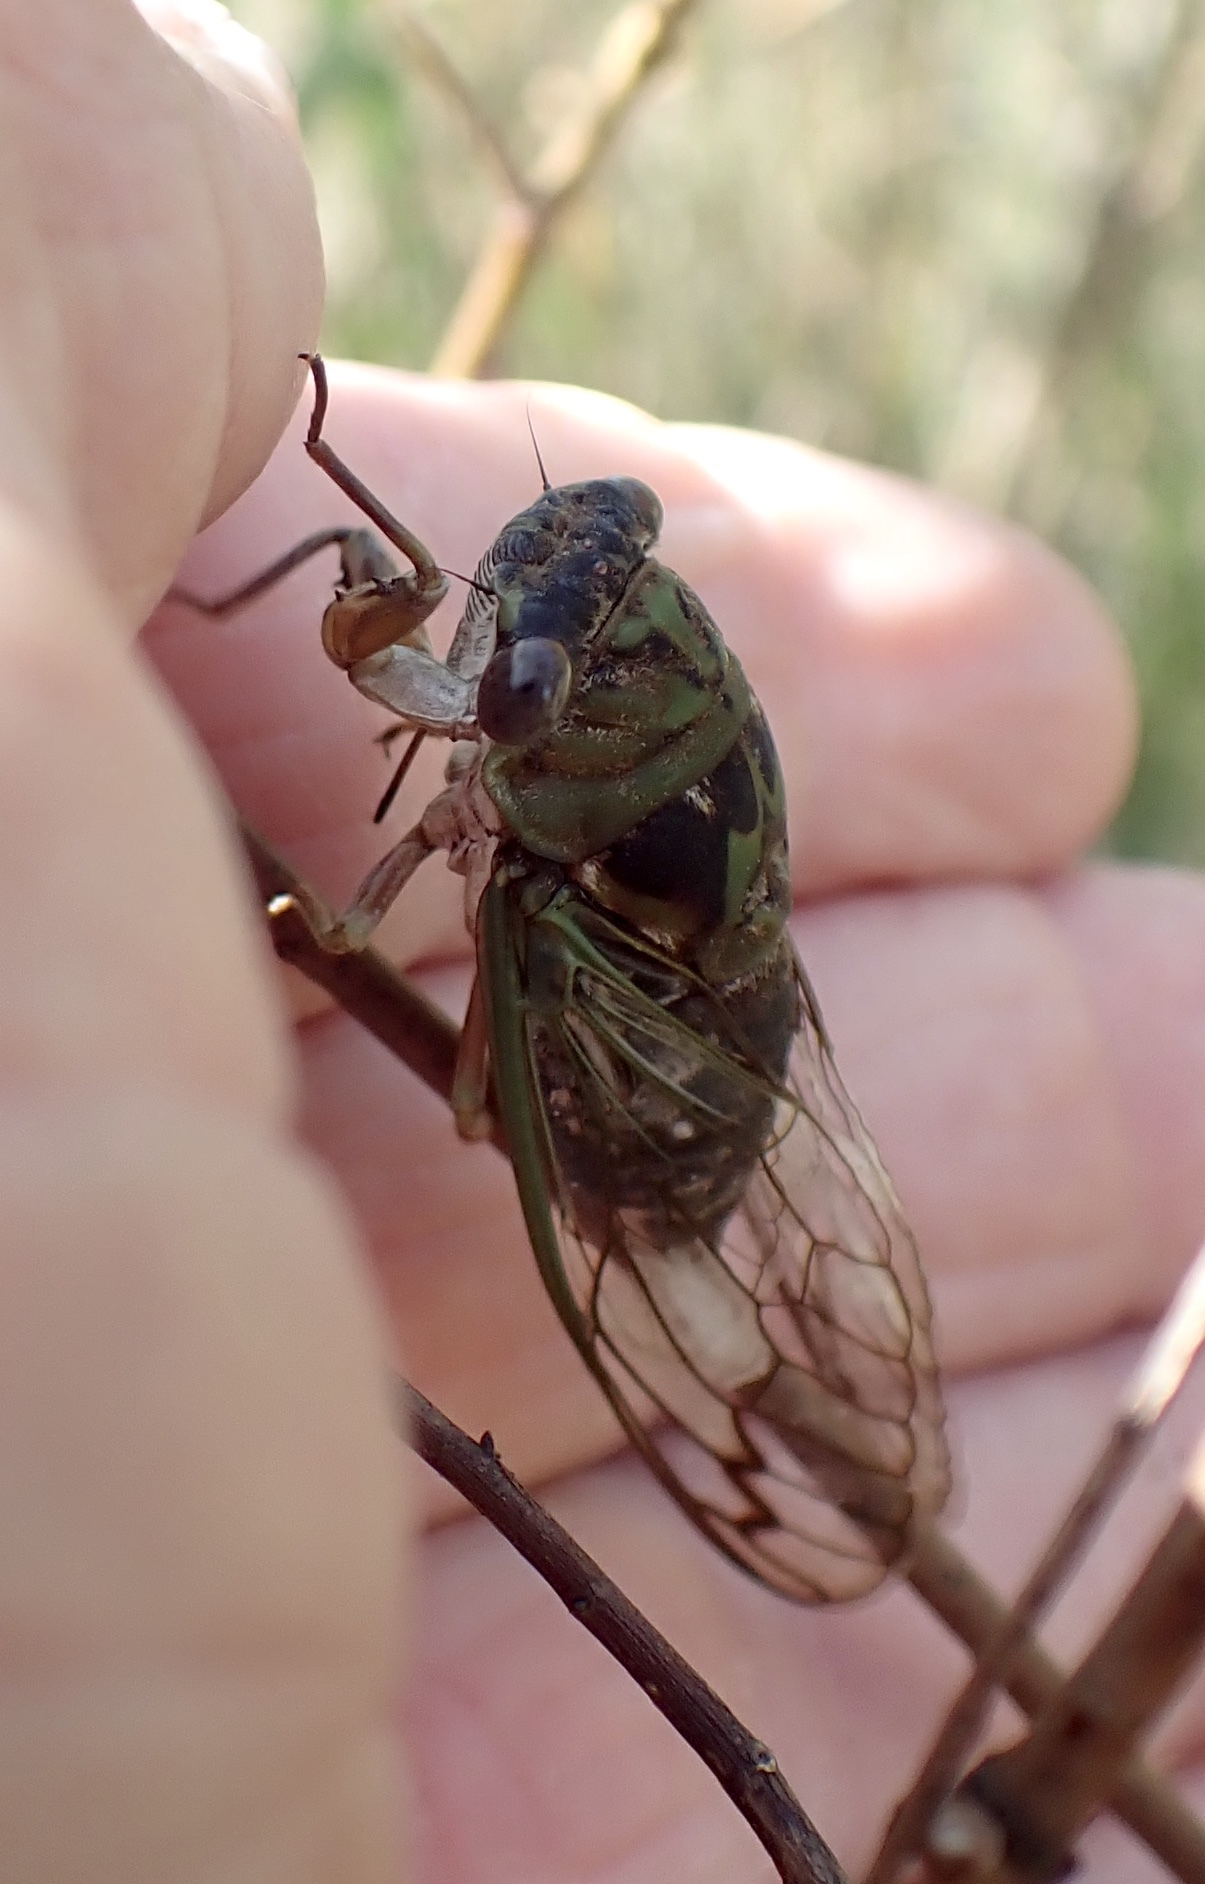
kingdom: Animalia
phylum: Arthropoda
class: Insecta
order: Hemiptera
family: Cicadidae
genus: Neotibicen
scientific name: Neotibicen davisi
